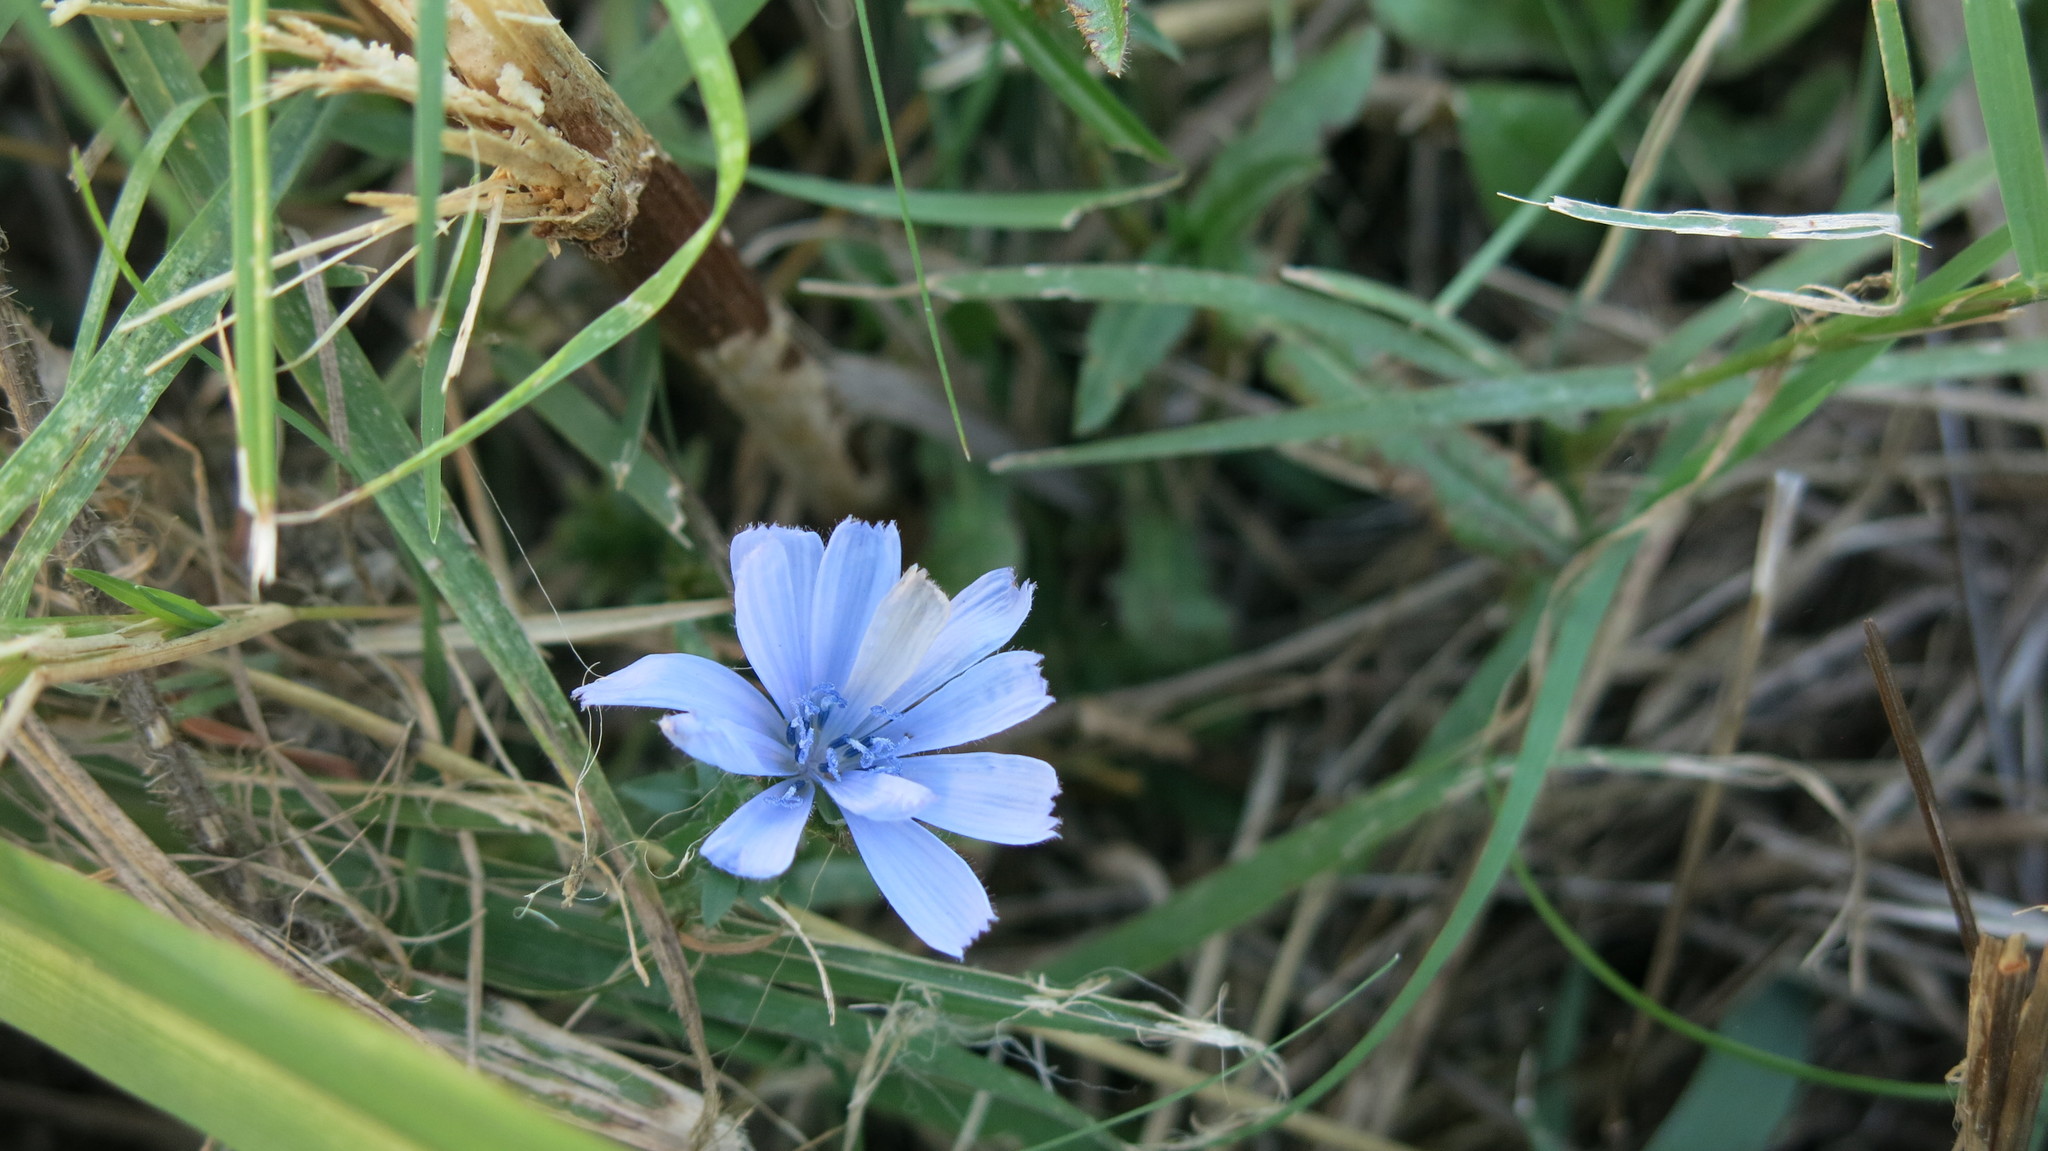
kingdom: Plantae
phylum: Tracheophyta
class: Magnoliopsida
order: Asterales
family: Asteraceae
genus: Cichorium
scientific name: Cichorium intybus
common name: Chicory
